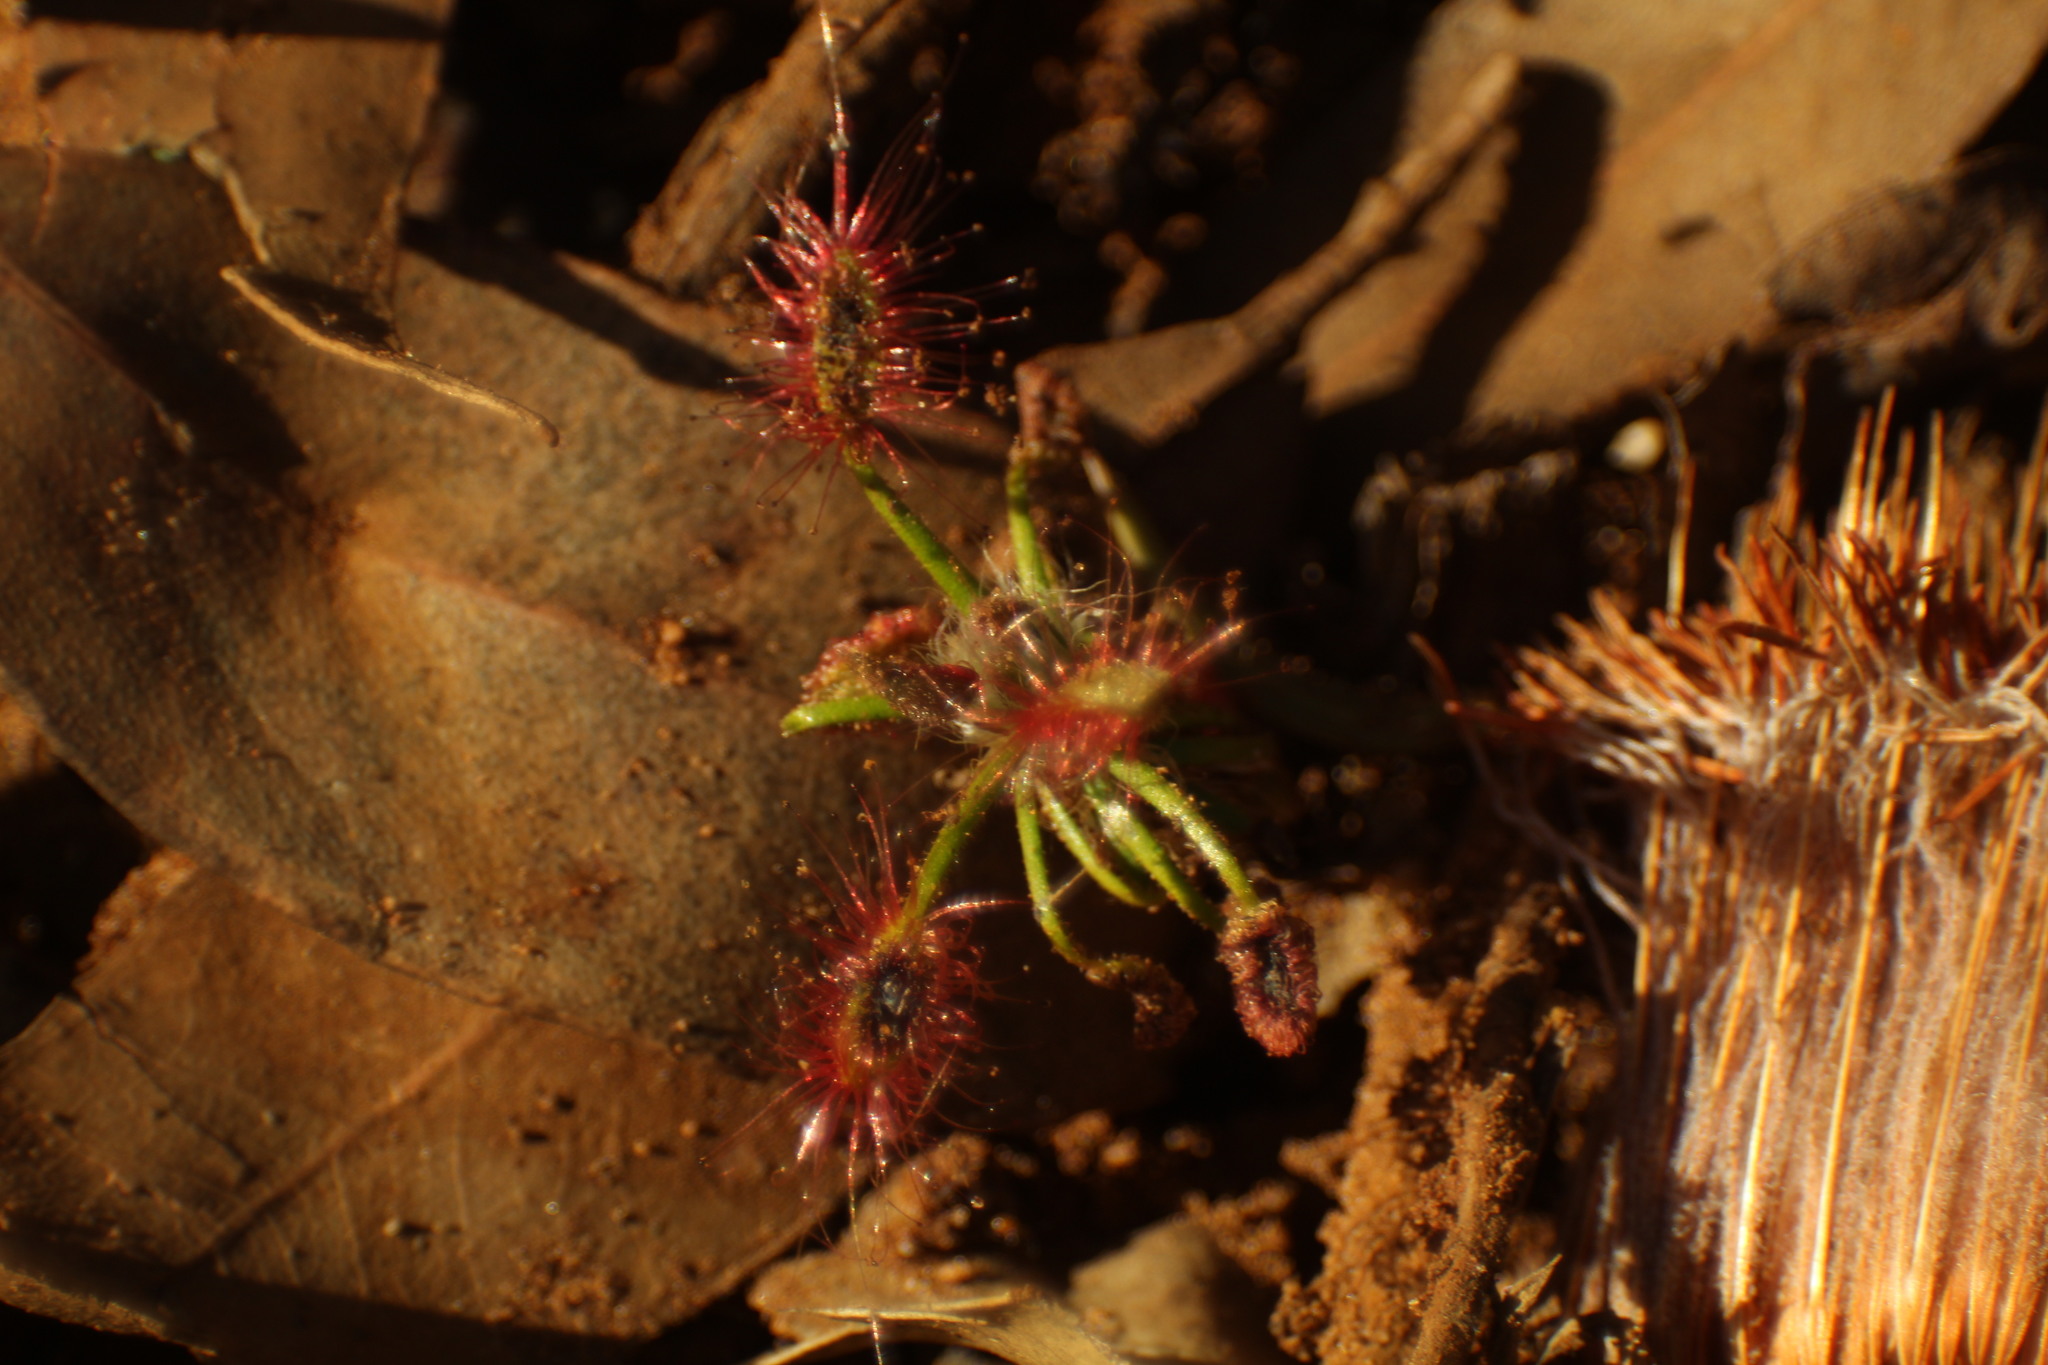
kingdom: Plantae
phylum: Tracheophyta
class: Magnoliopsida
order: Caryophyllales
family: Droseraceae
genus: Drosera
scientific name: Drosera scorpioides
